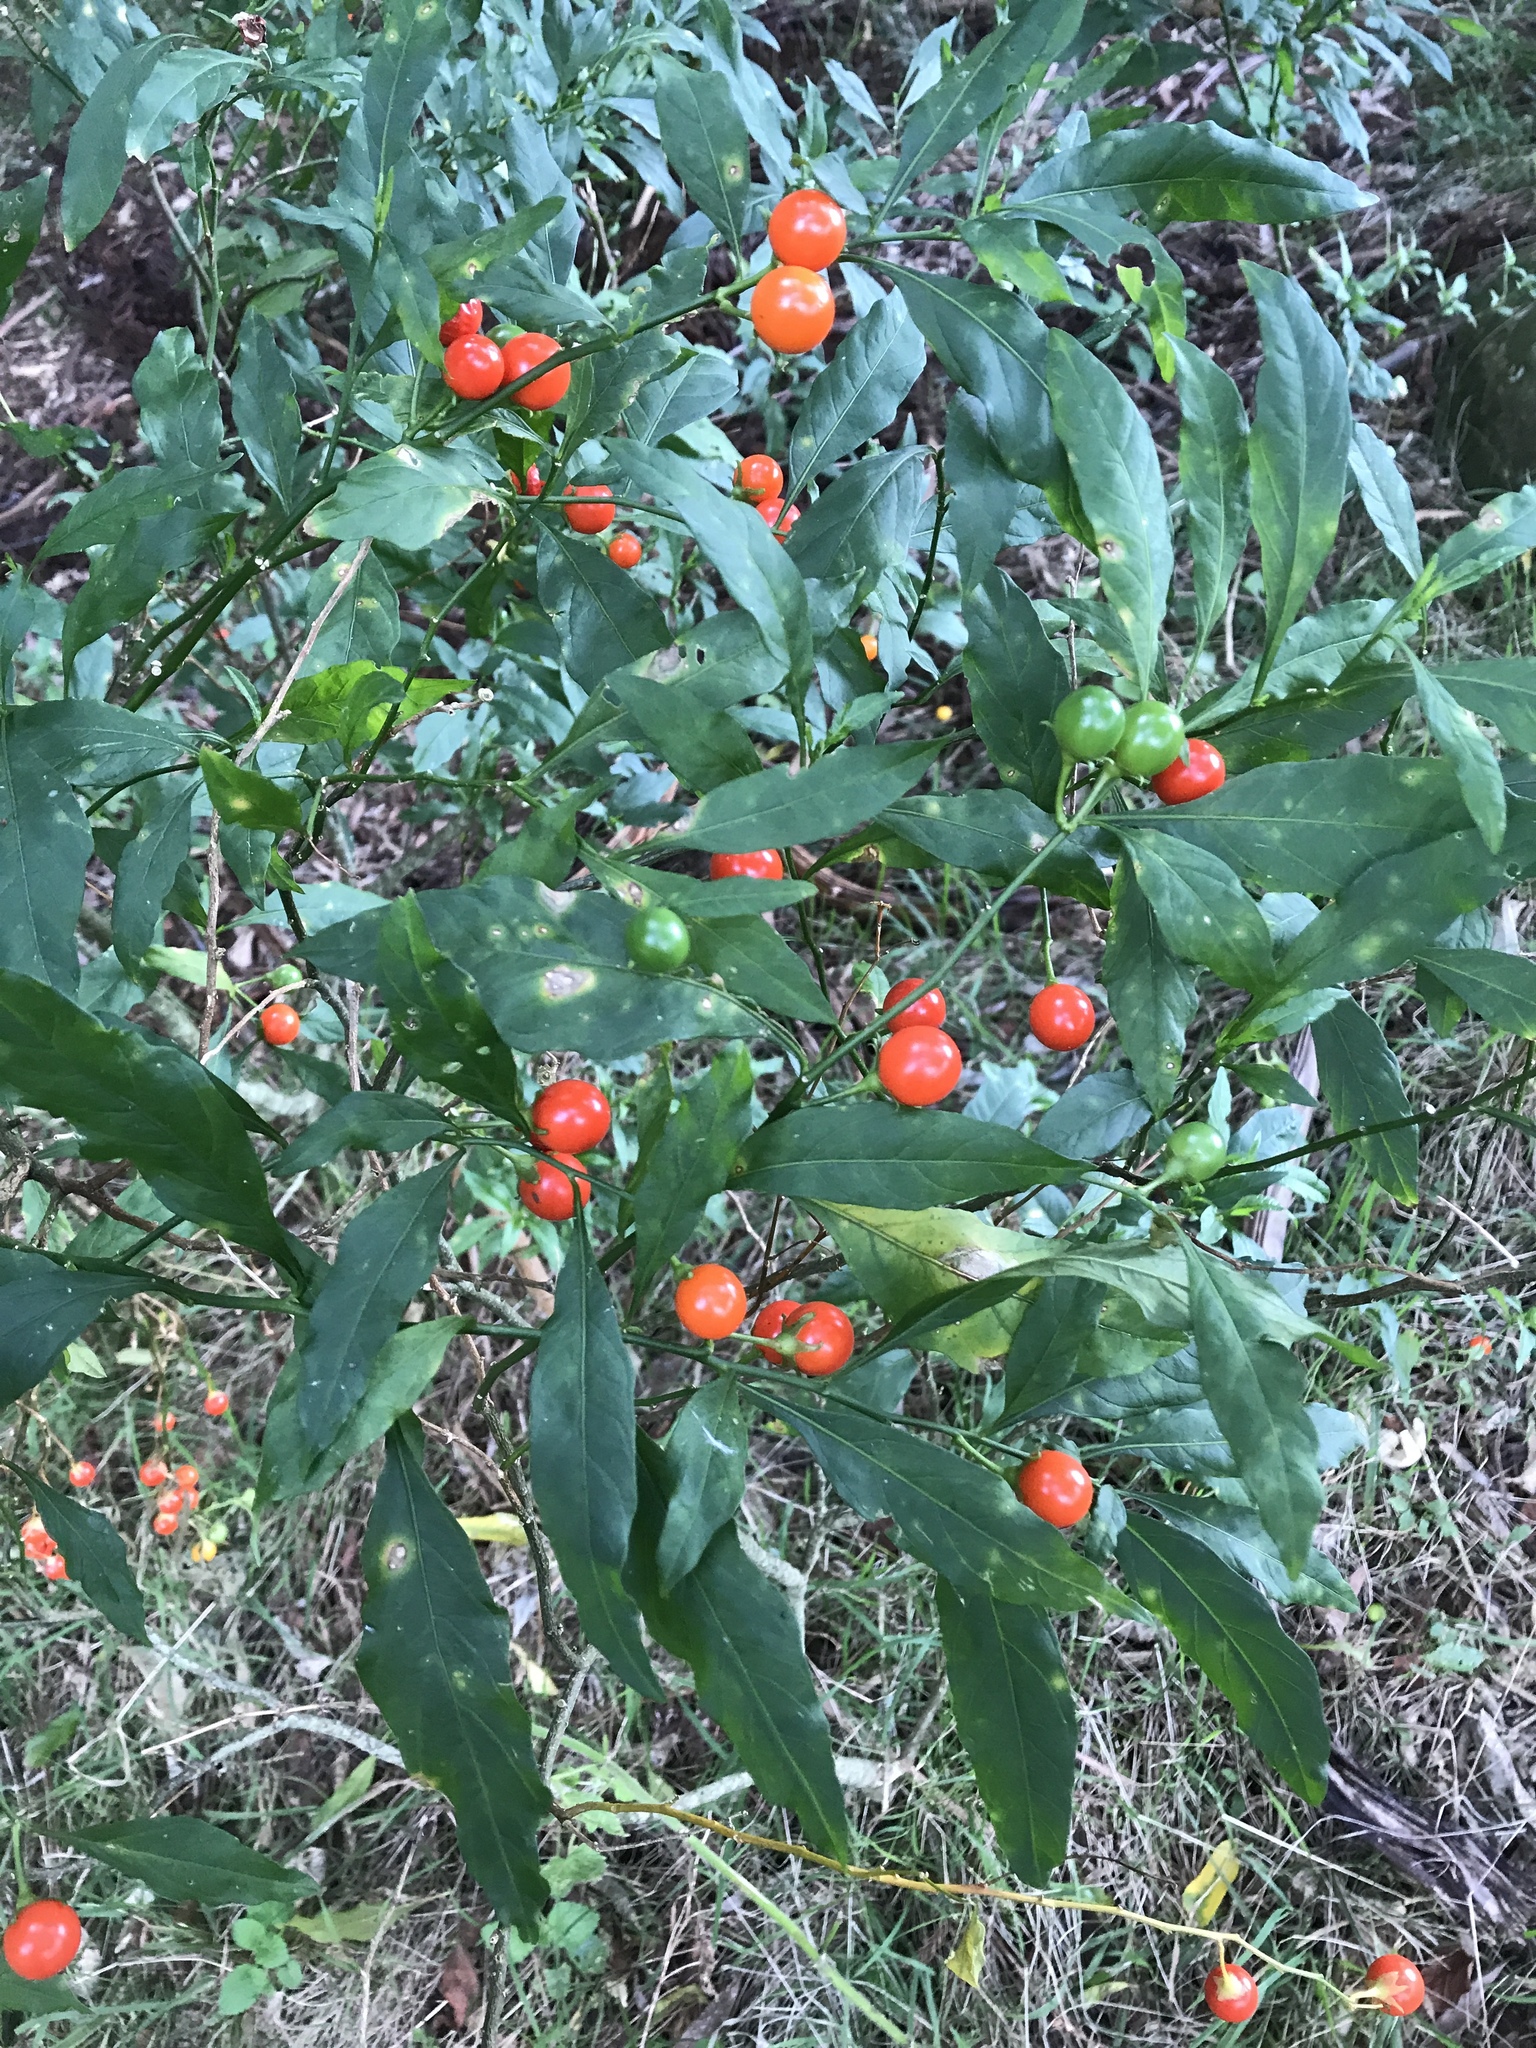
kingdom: Plantae
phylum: Tracheophyta
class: Magnoliopsida
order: Solanales
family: Solanaceae
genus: Solanum
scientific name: Solanum pseudocapsicum
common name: Jerusalem cherry
